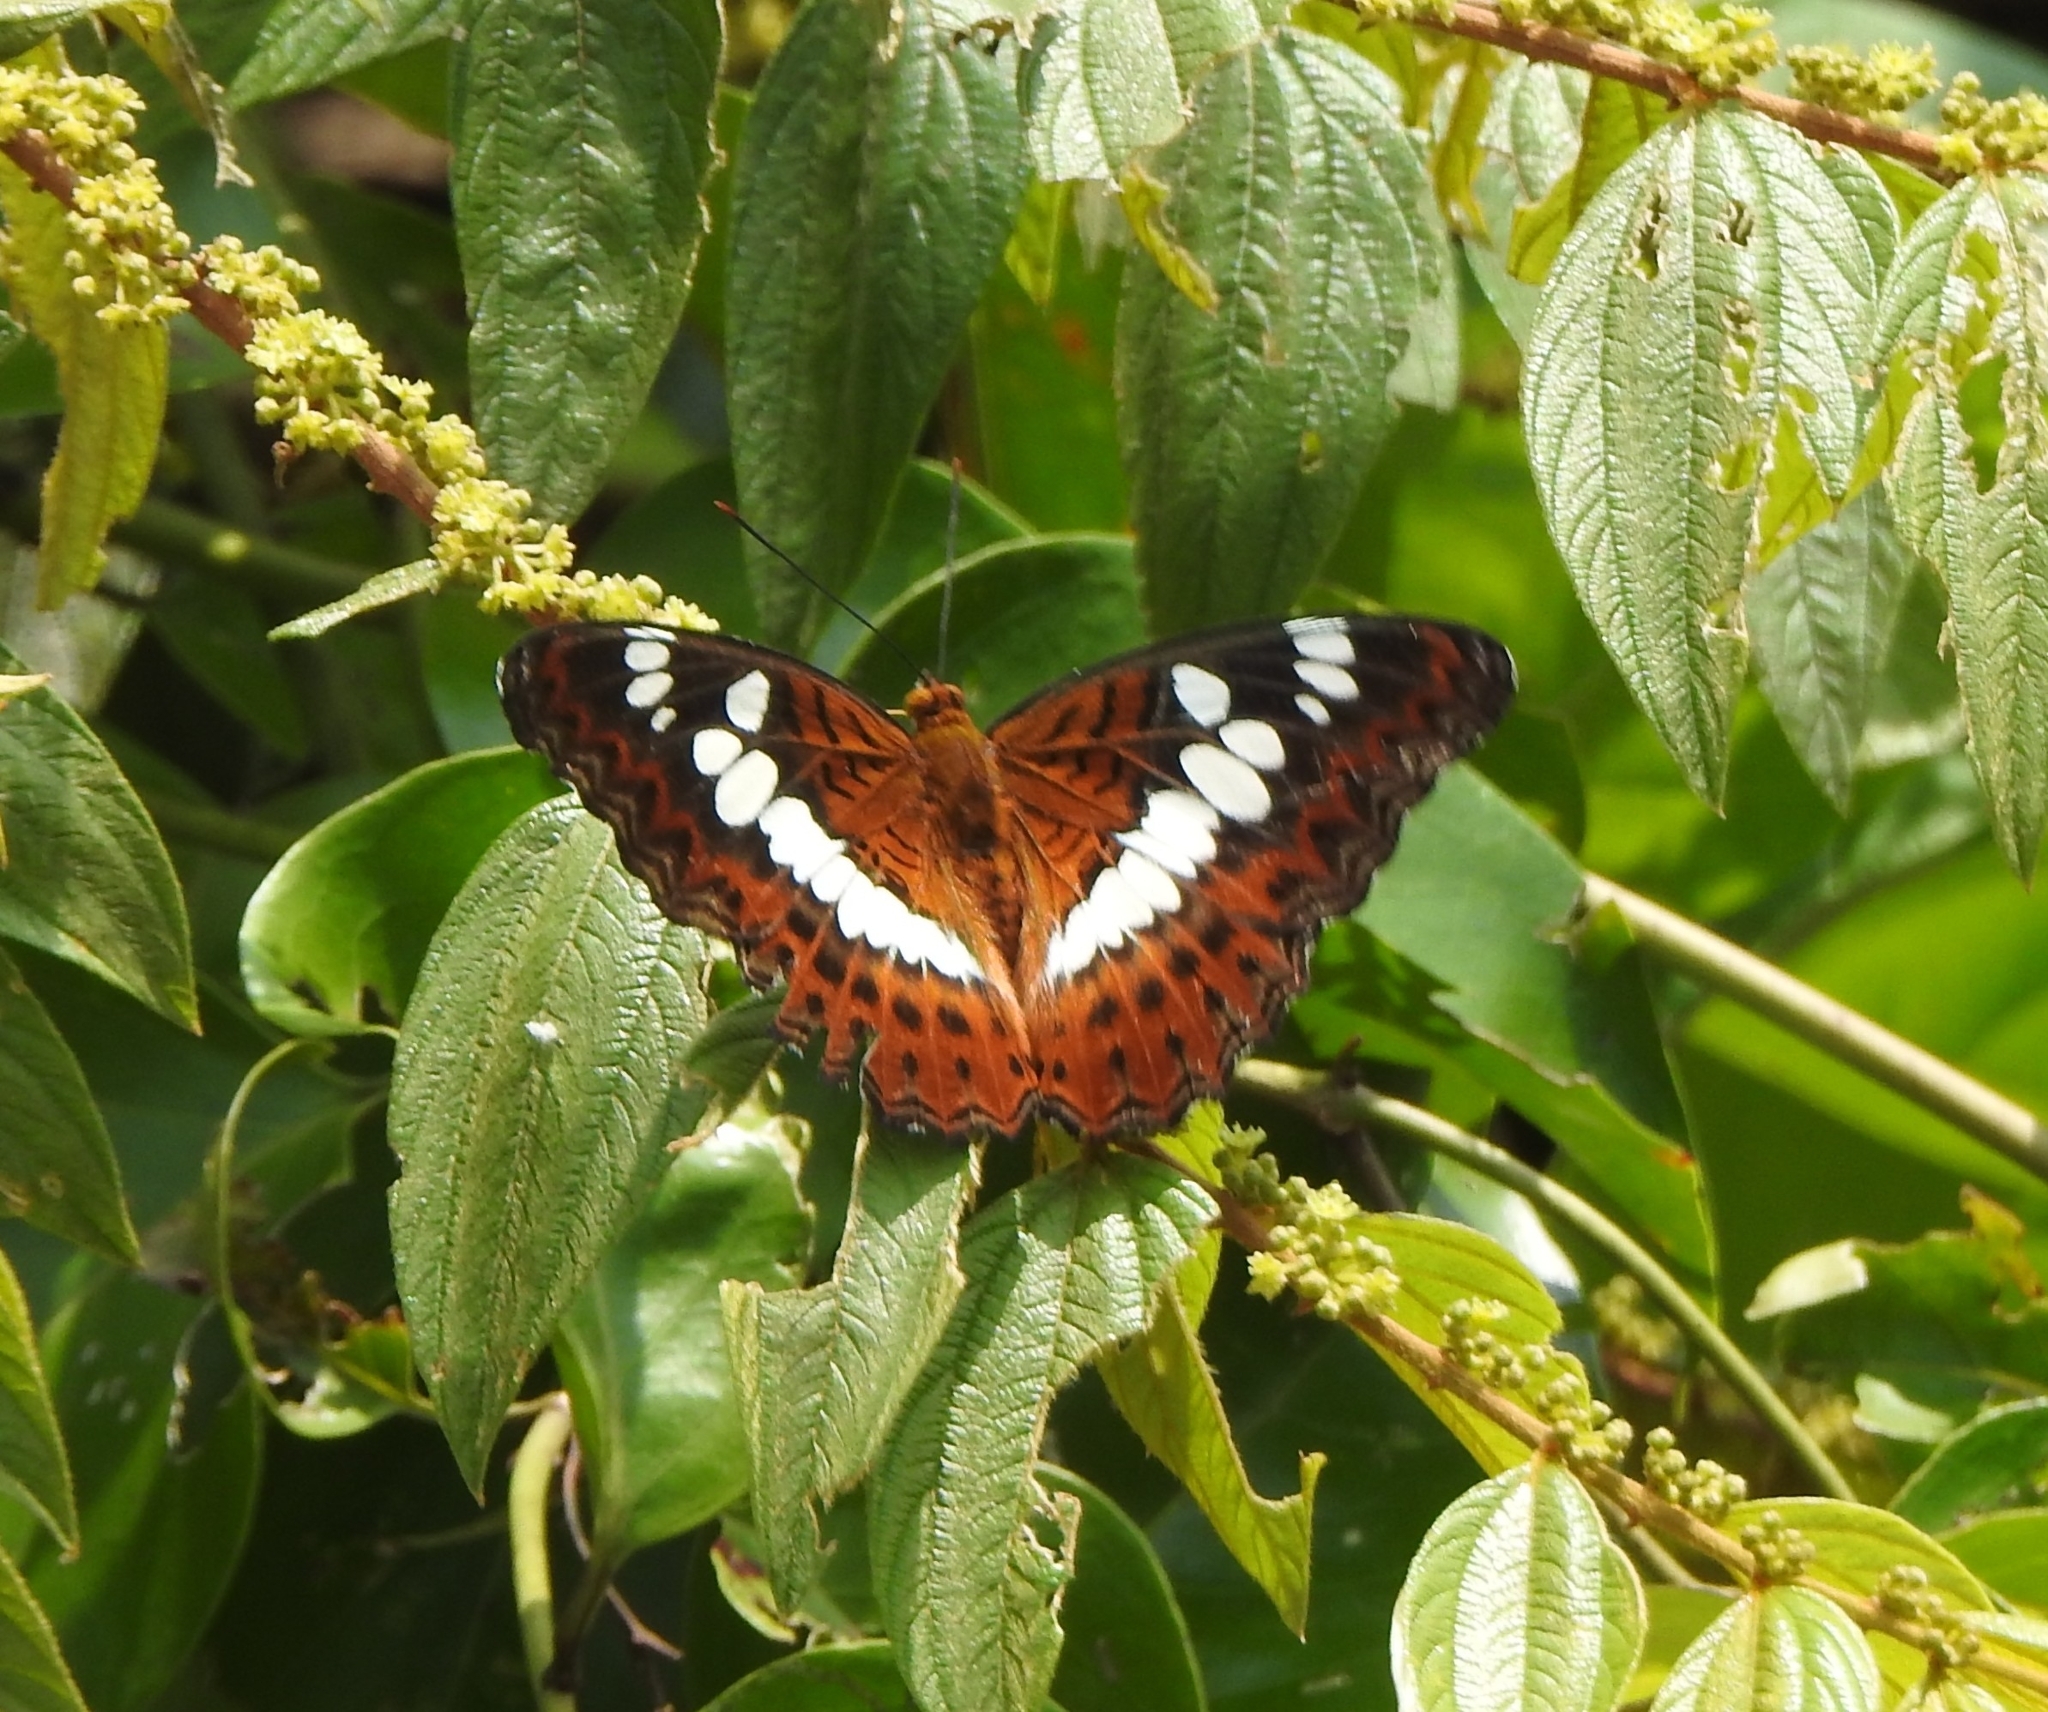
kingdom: Animalia
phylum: Arthropoda
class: Insecta
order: Lepidoptera
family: Nymphalidae
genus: Limenitis
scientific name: Limenitis Moduza procris
